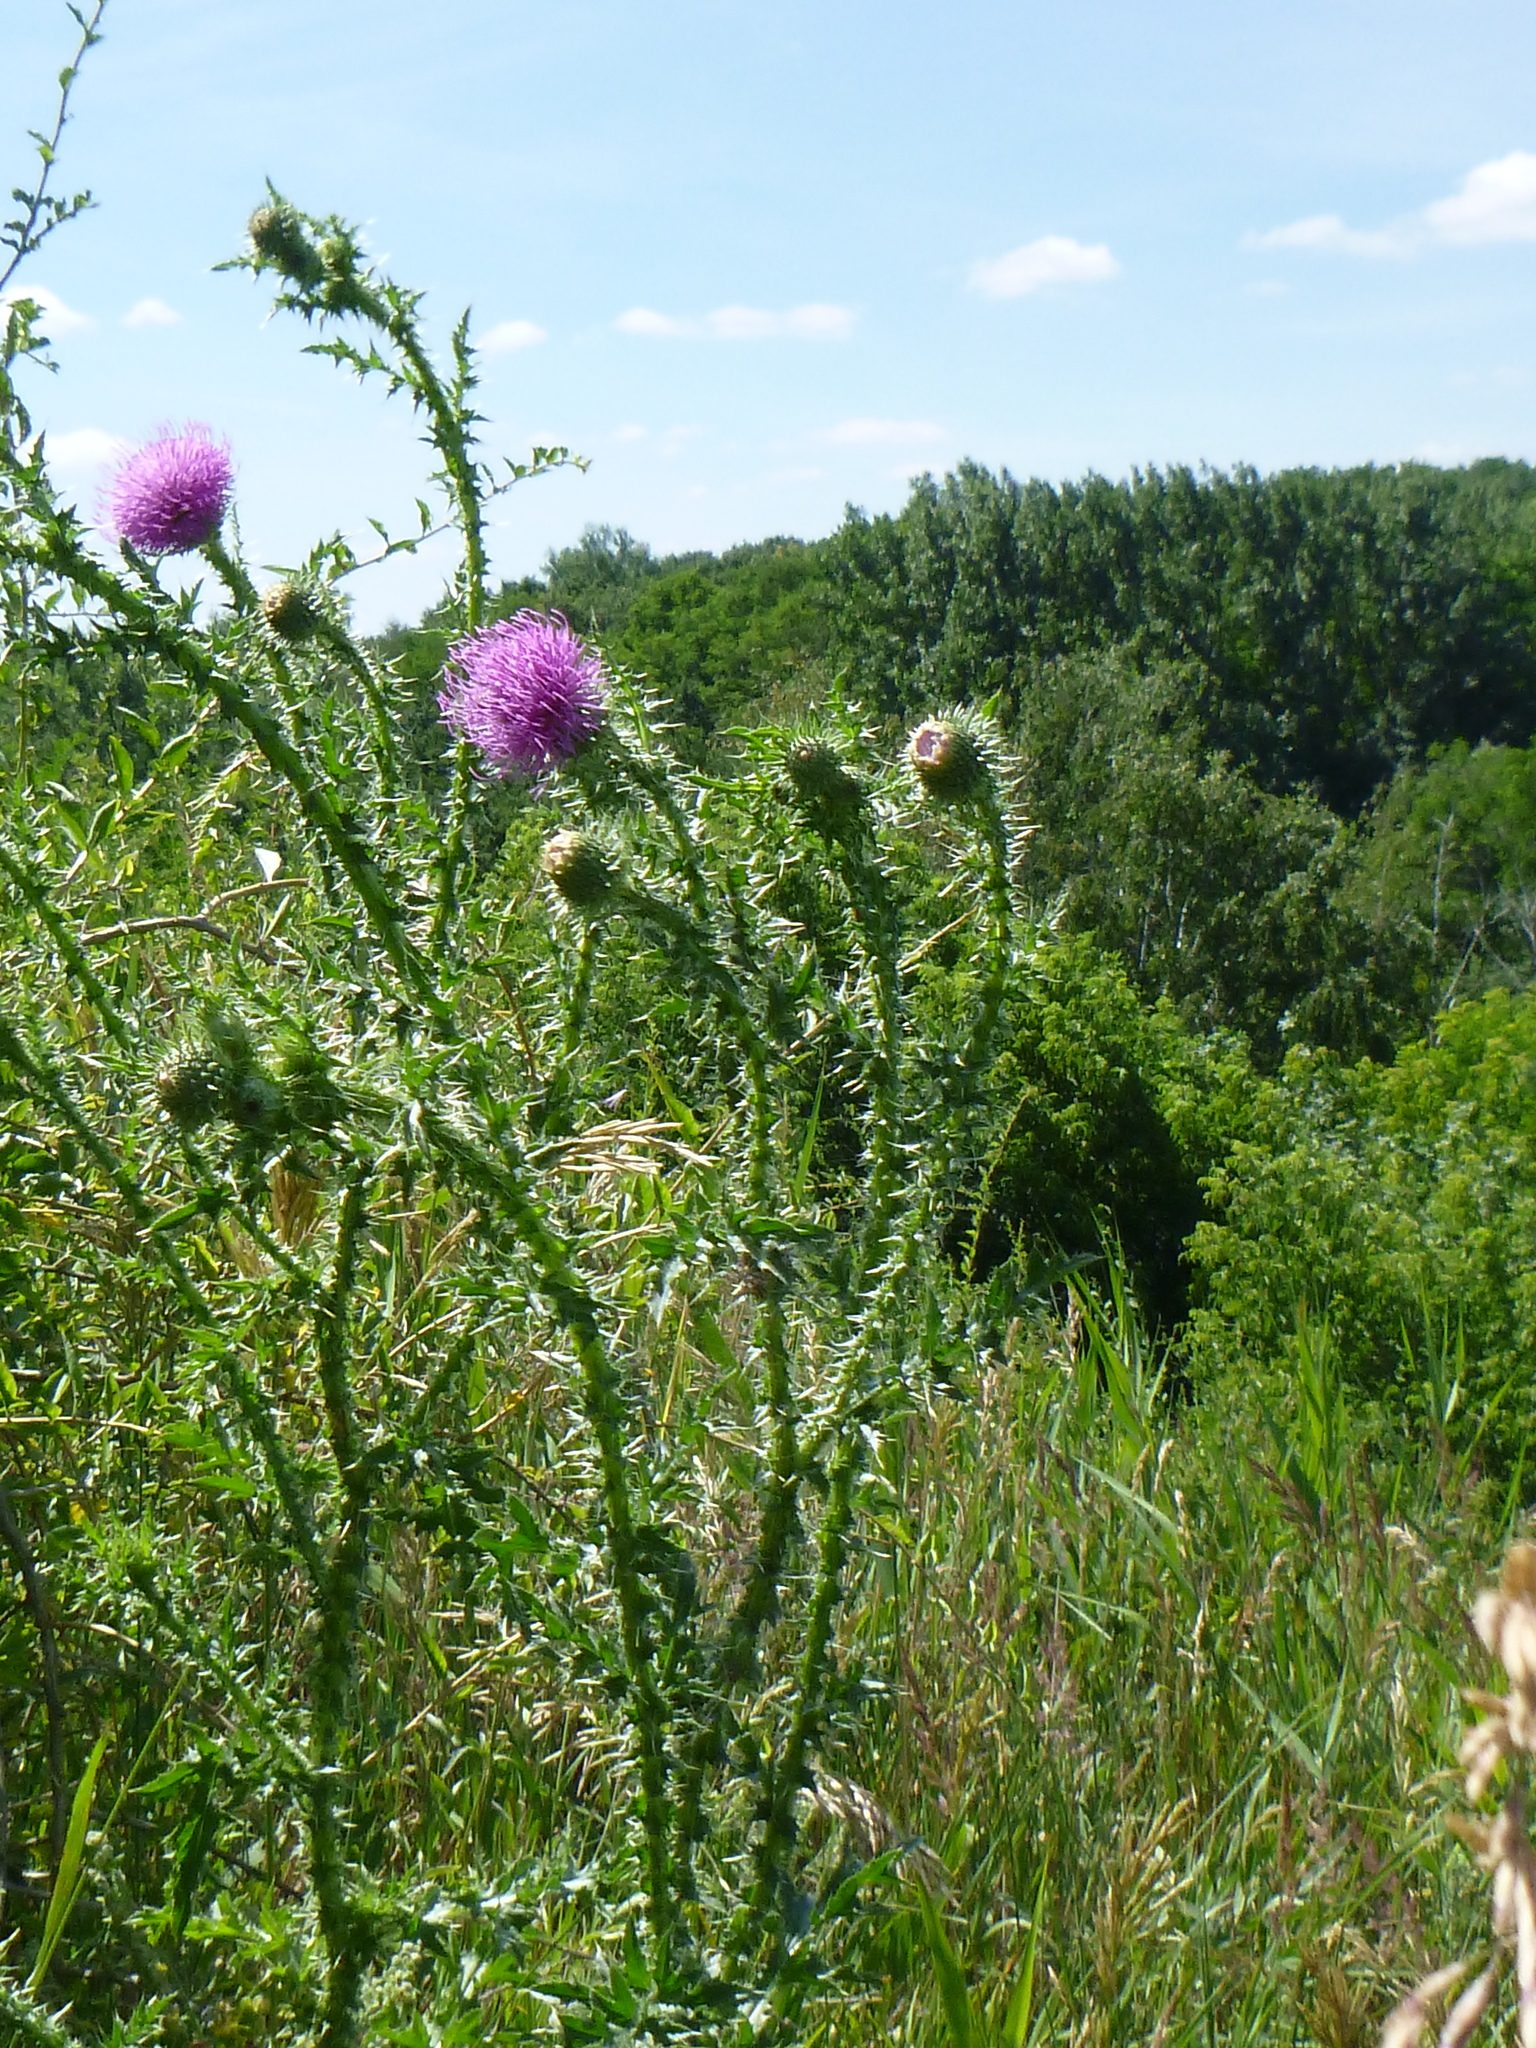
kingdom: Plantae
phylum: Tracheophyta
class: Magnoliopsida
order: Asterales
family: Asteraceae
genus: Carduus
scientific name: Carduus crispus
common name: Welted thistle
